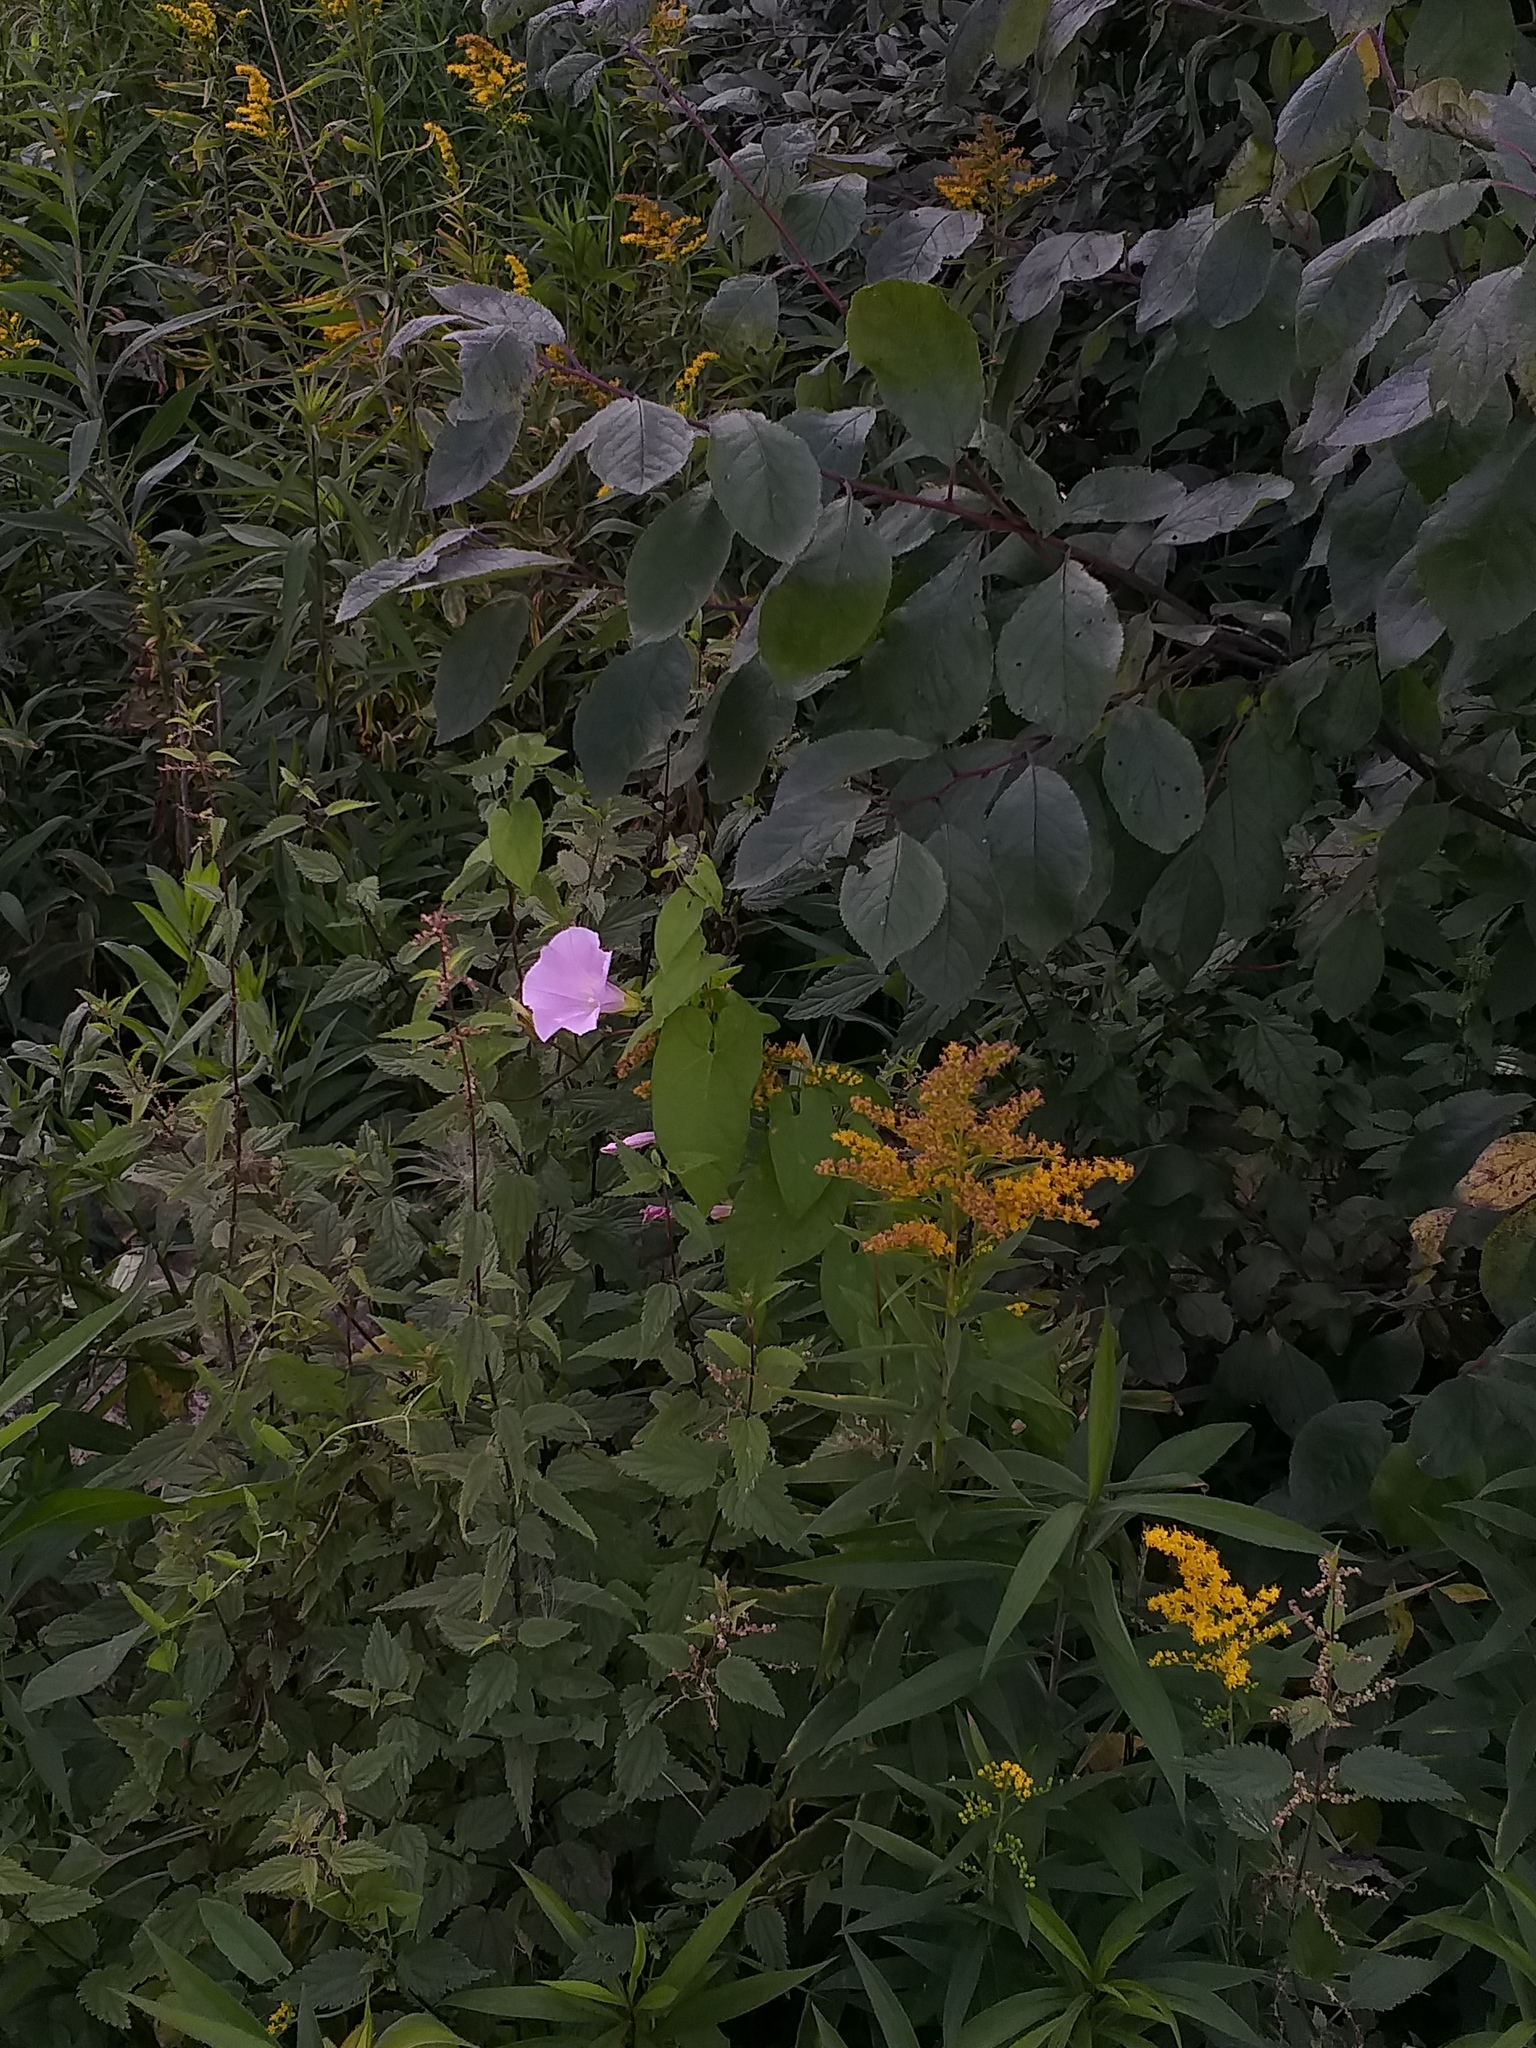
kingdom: Plantae
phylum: Tracheophyta
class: Magnoliopsida
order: Solanales
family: Convolvulaceae
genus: Calystegia
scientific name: Calystegia sepium
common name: Hedge bindweed
